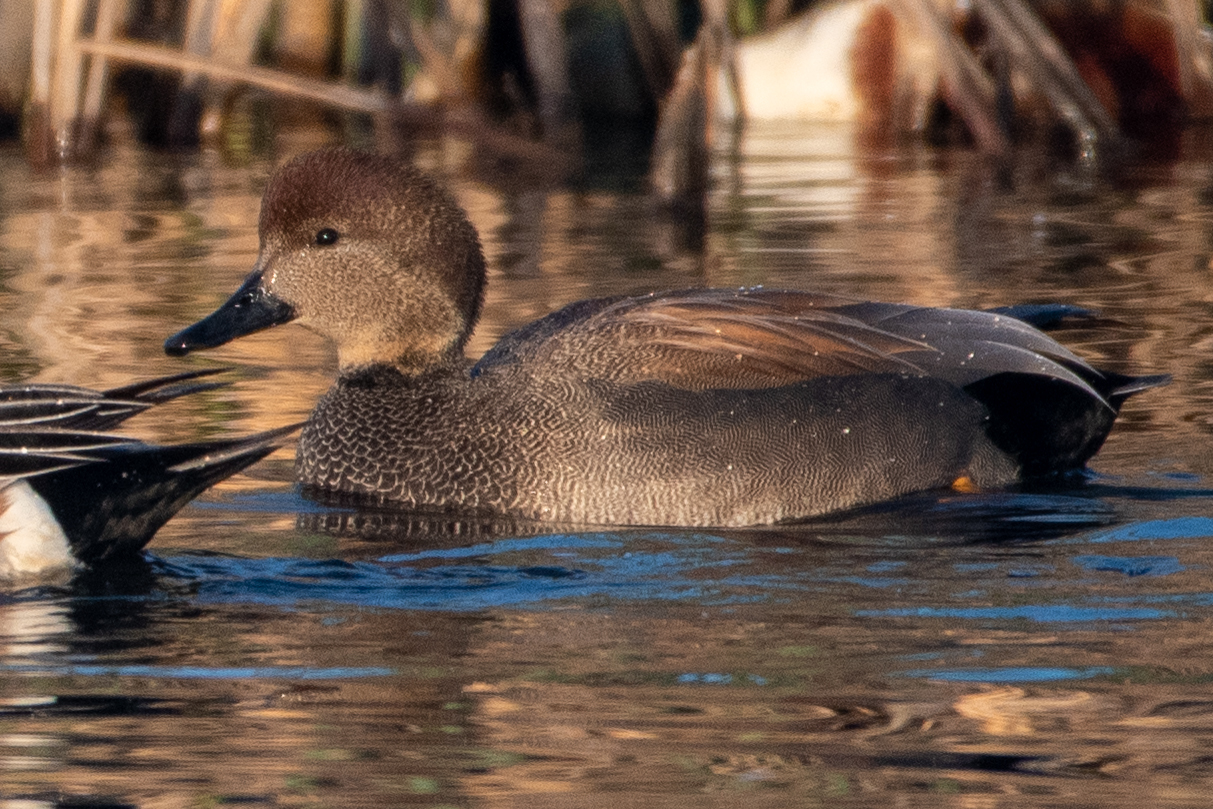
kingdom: Animalia
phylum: Chordata
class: Aves
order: Anseriformes
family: Anatidae
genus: Mareca
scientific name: Mareca strepera
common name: Gadwall
